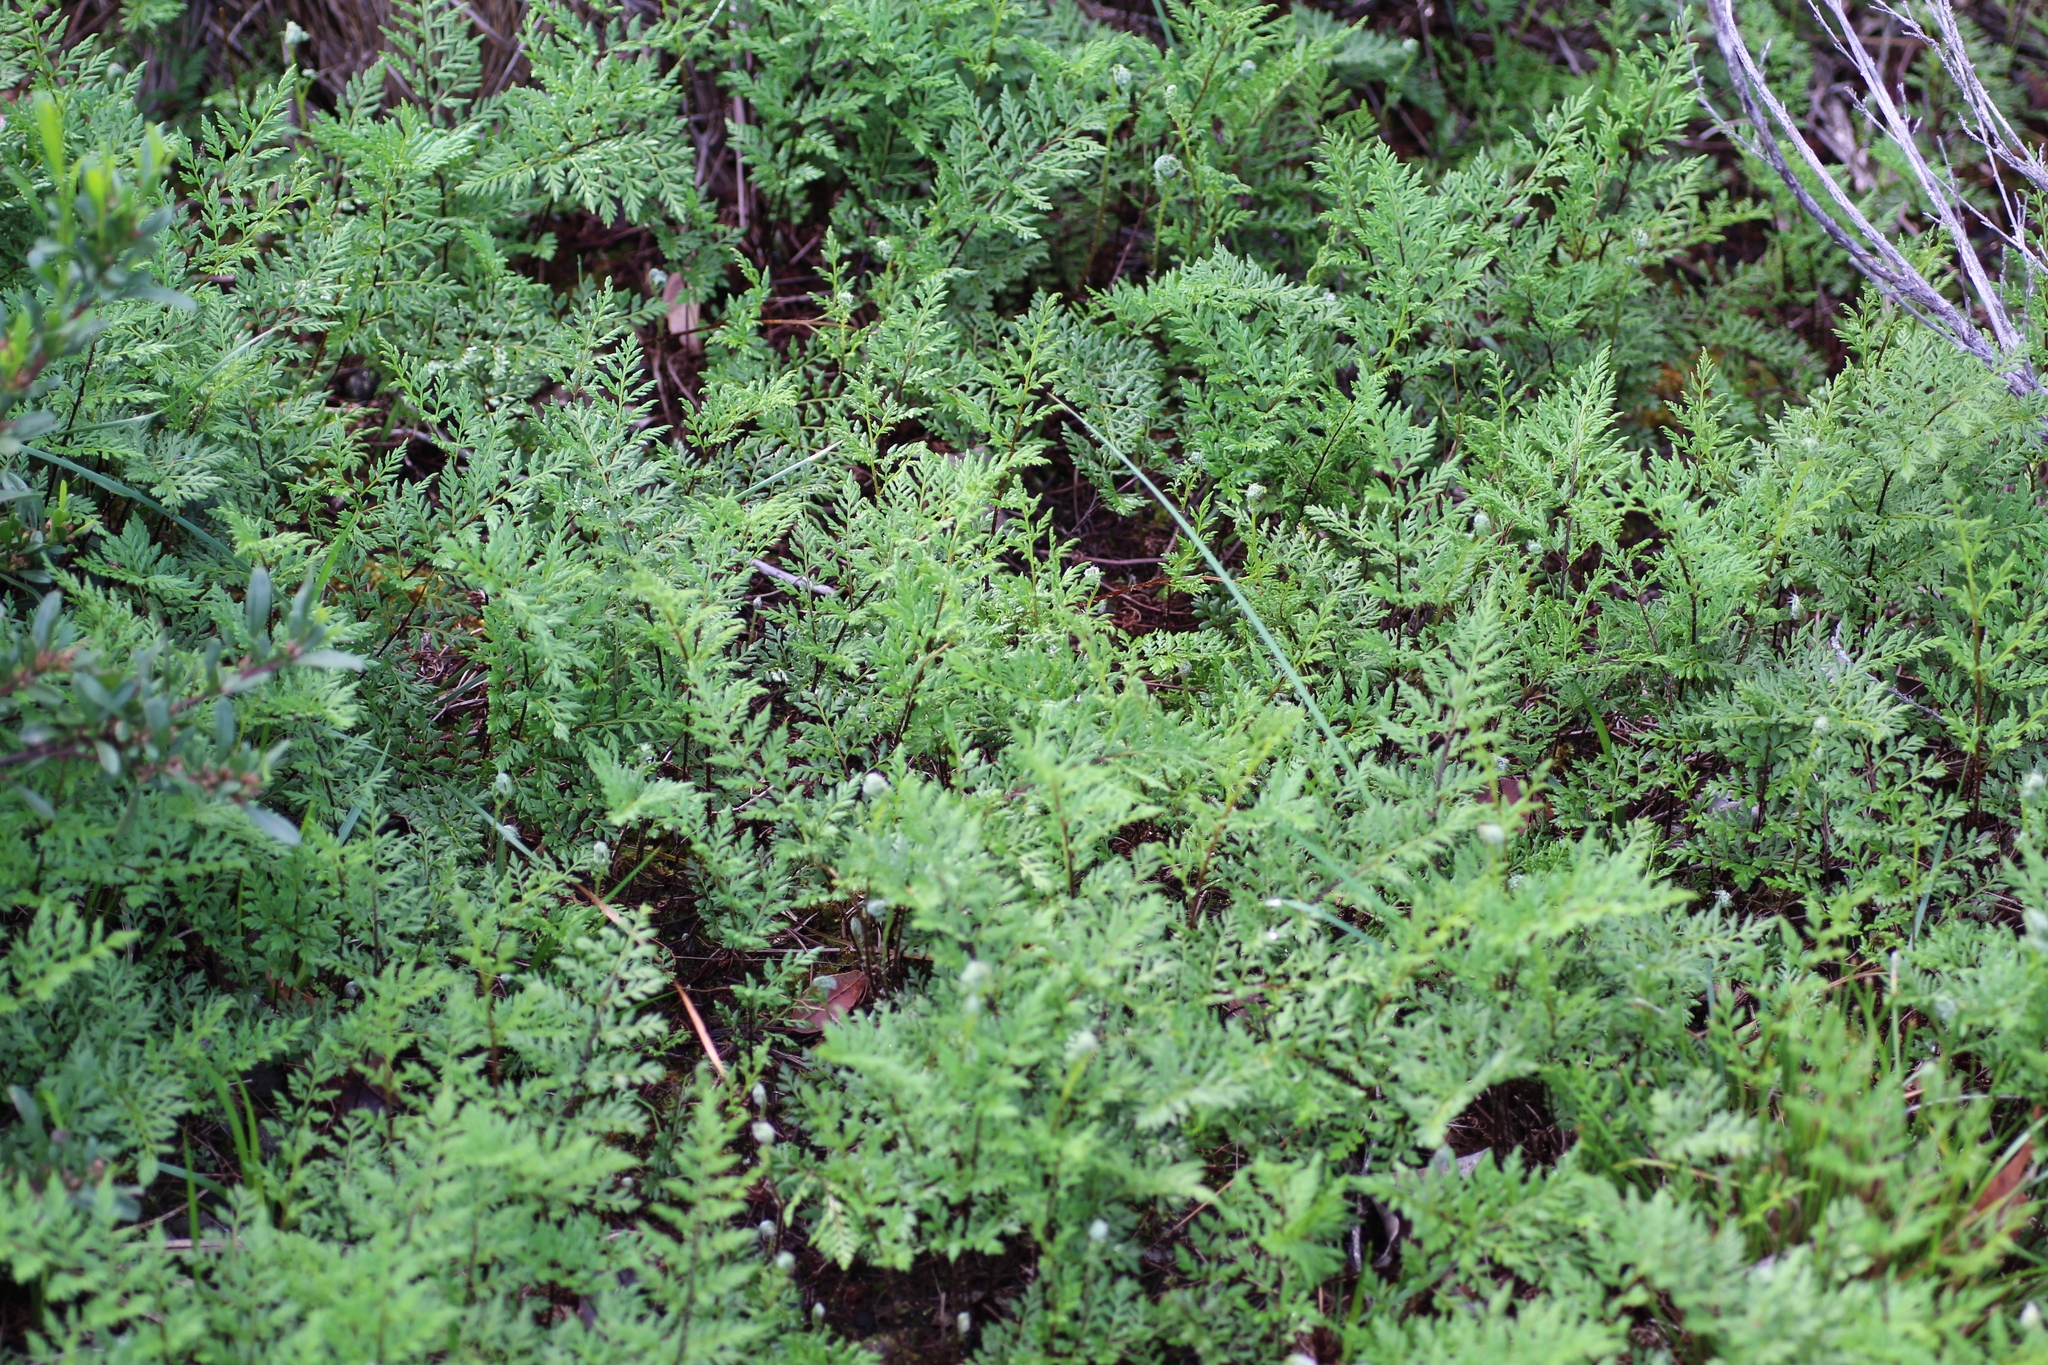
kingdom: Plantae
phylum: Tracheophyta
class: Polypodiopsida
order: Polypodiales
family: Pteridaceae
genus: Cheilanthes
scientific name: Cheilanthes austrotenuifolia
